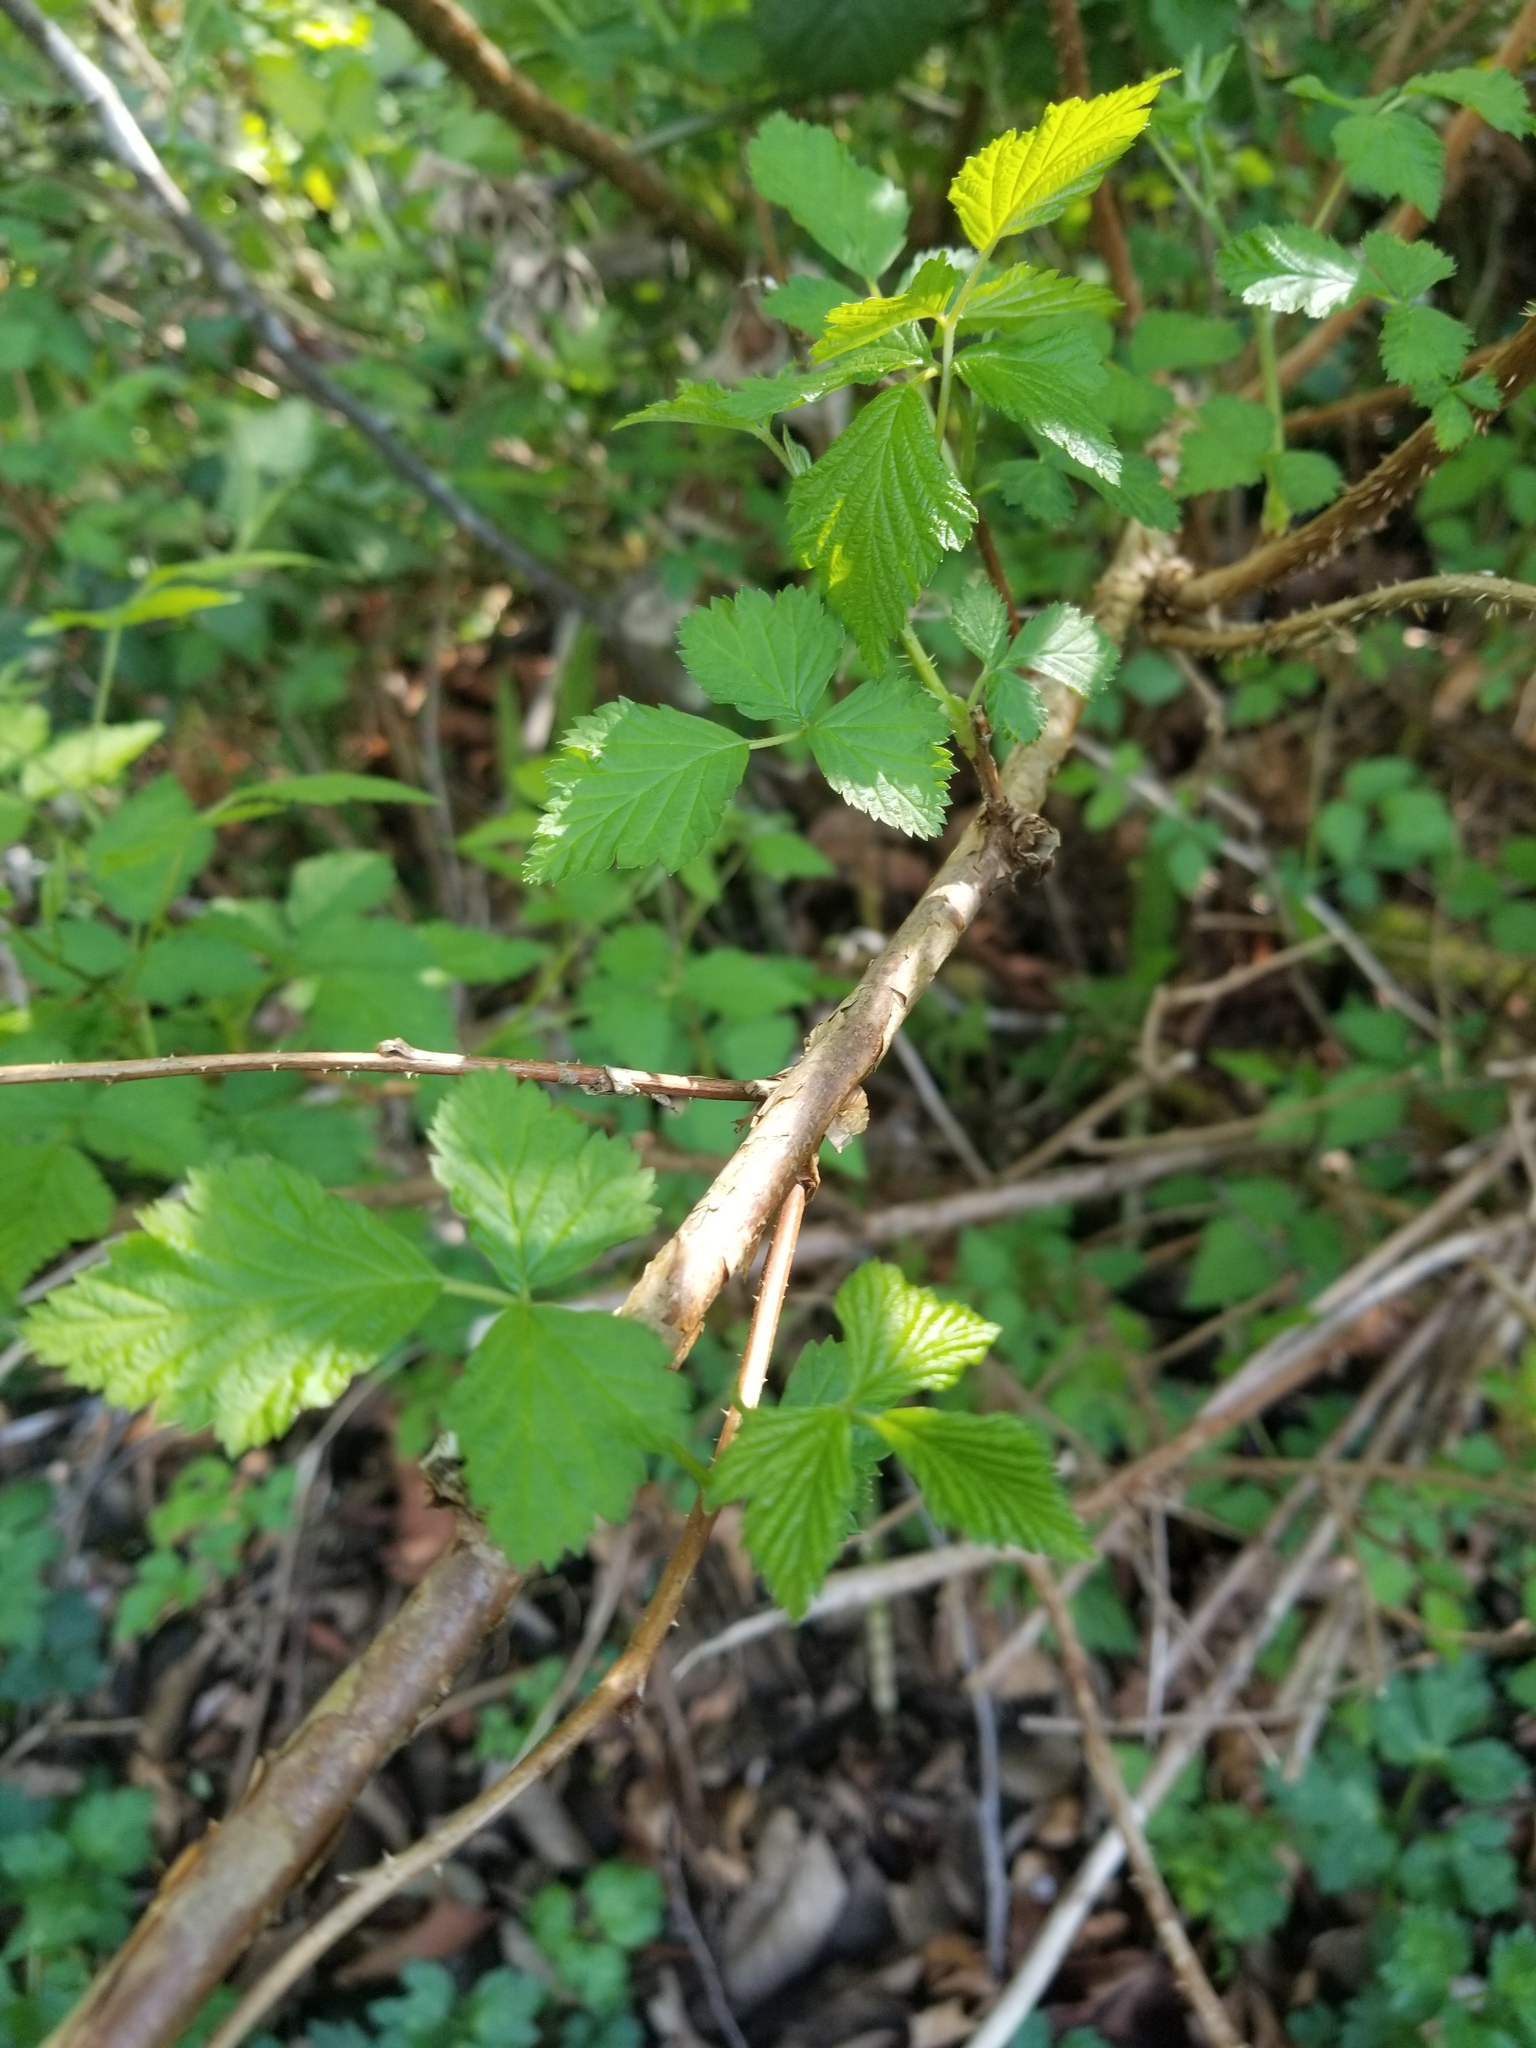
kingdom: Plantae
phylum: Tracheophyta
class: Magnoliopsida
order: Rosales
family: Rosaceae
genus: Rubus
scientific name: Rubus spectabilis
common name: Salmonberry
